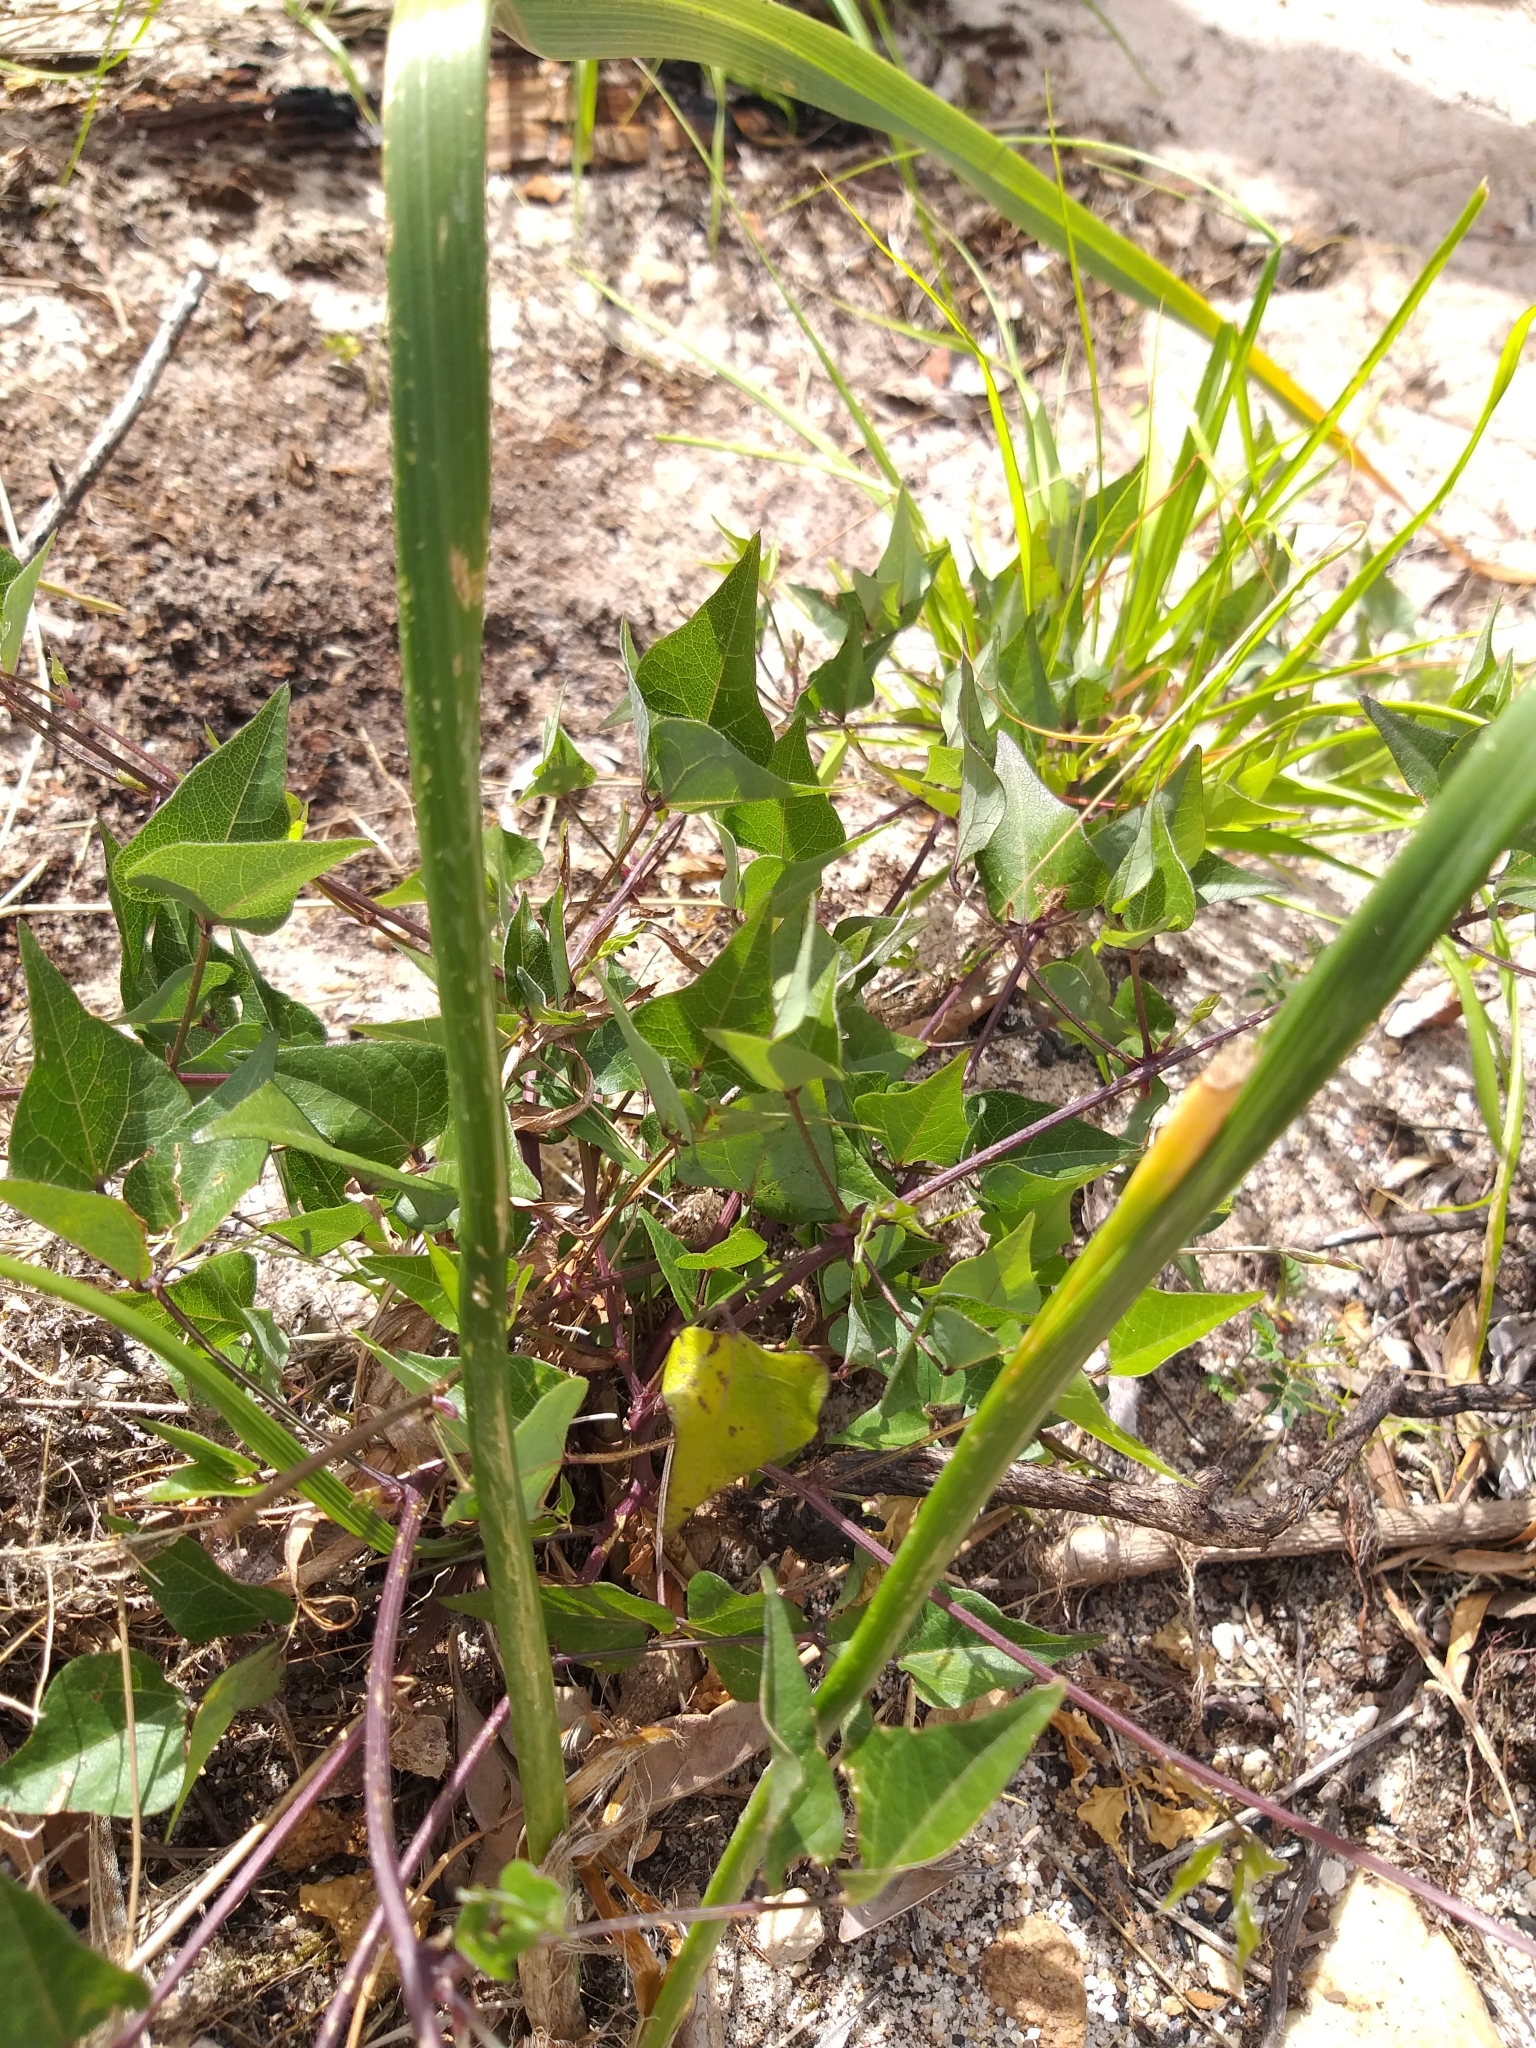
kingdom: Plantae
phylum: Tracheophyta
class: Magnoliopsida
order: Fabales
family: Fabaceae
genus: Dipogon
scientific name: Dipogon lignosus
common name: Okie bean
